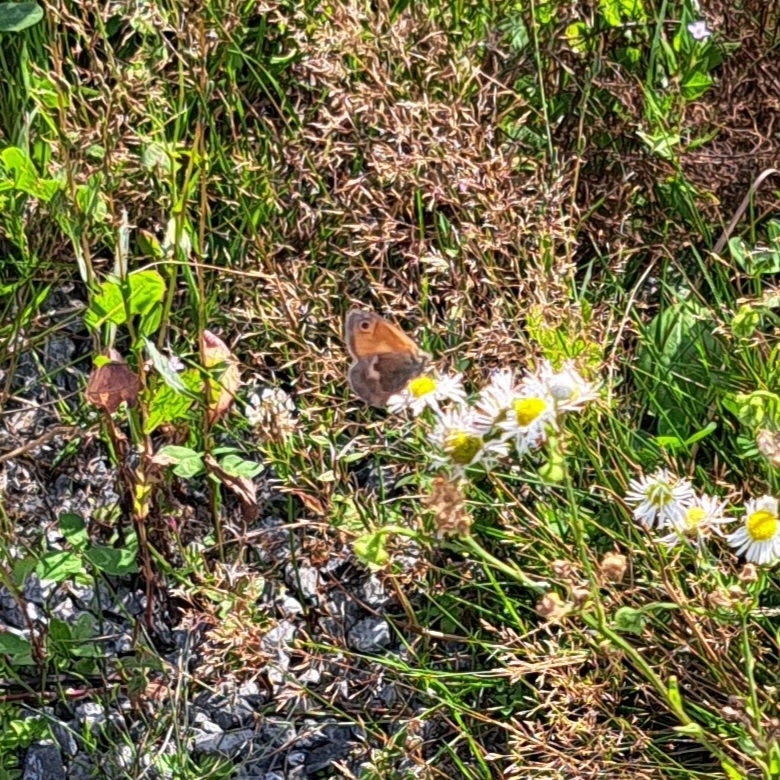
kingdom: Animalia
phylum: Arthropoda
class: Insecta
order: Lepidoptera
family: Nymphalidae
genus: Coenonympha
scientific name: Coenonympha pamphilus
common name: Small heath
